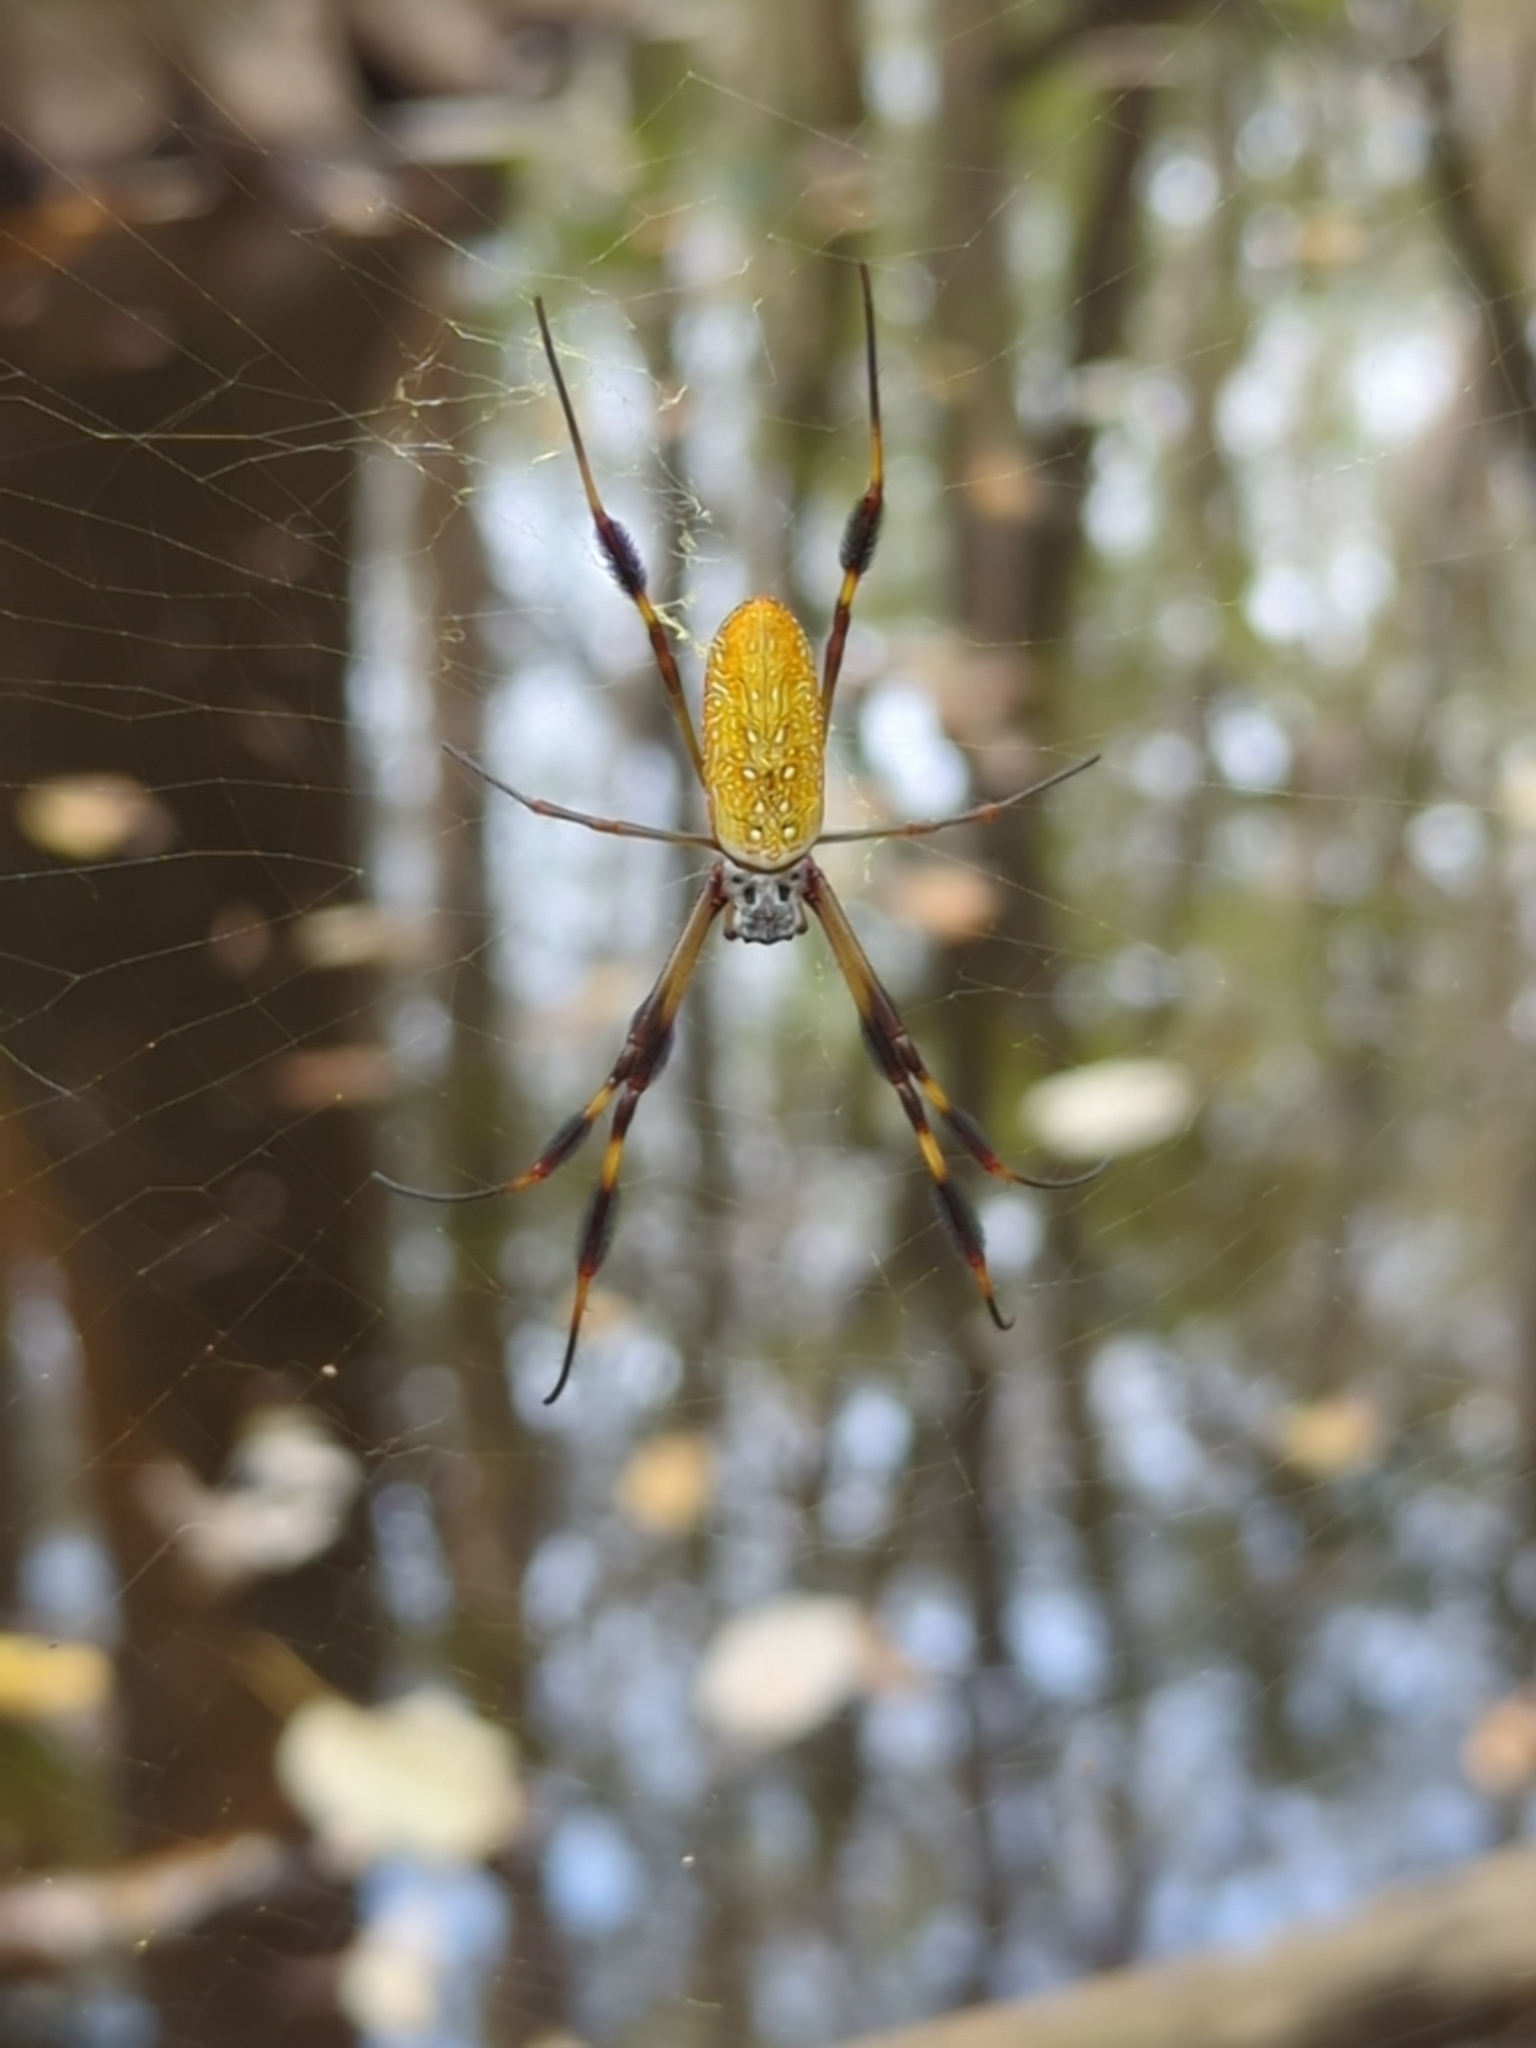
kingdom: Animalia
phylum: Arthropoda
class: Arachnida
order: Araneae
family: Araneidae
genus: Trichonephila
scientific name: Trichonephila clavipes
